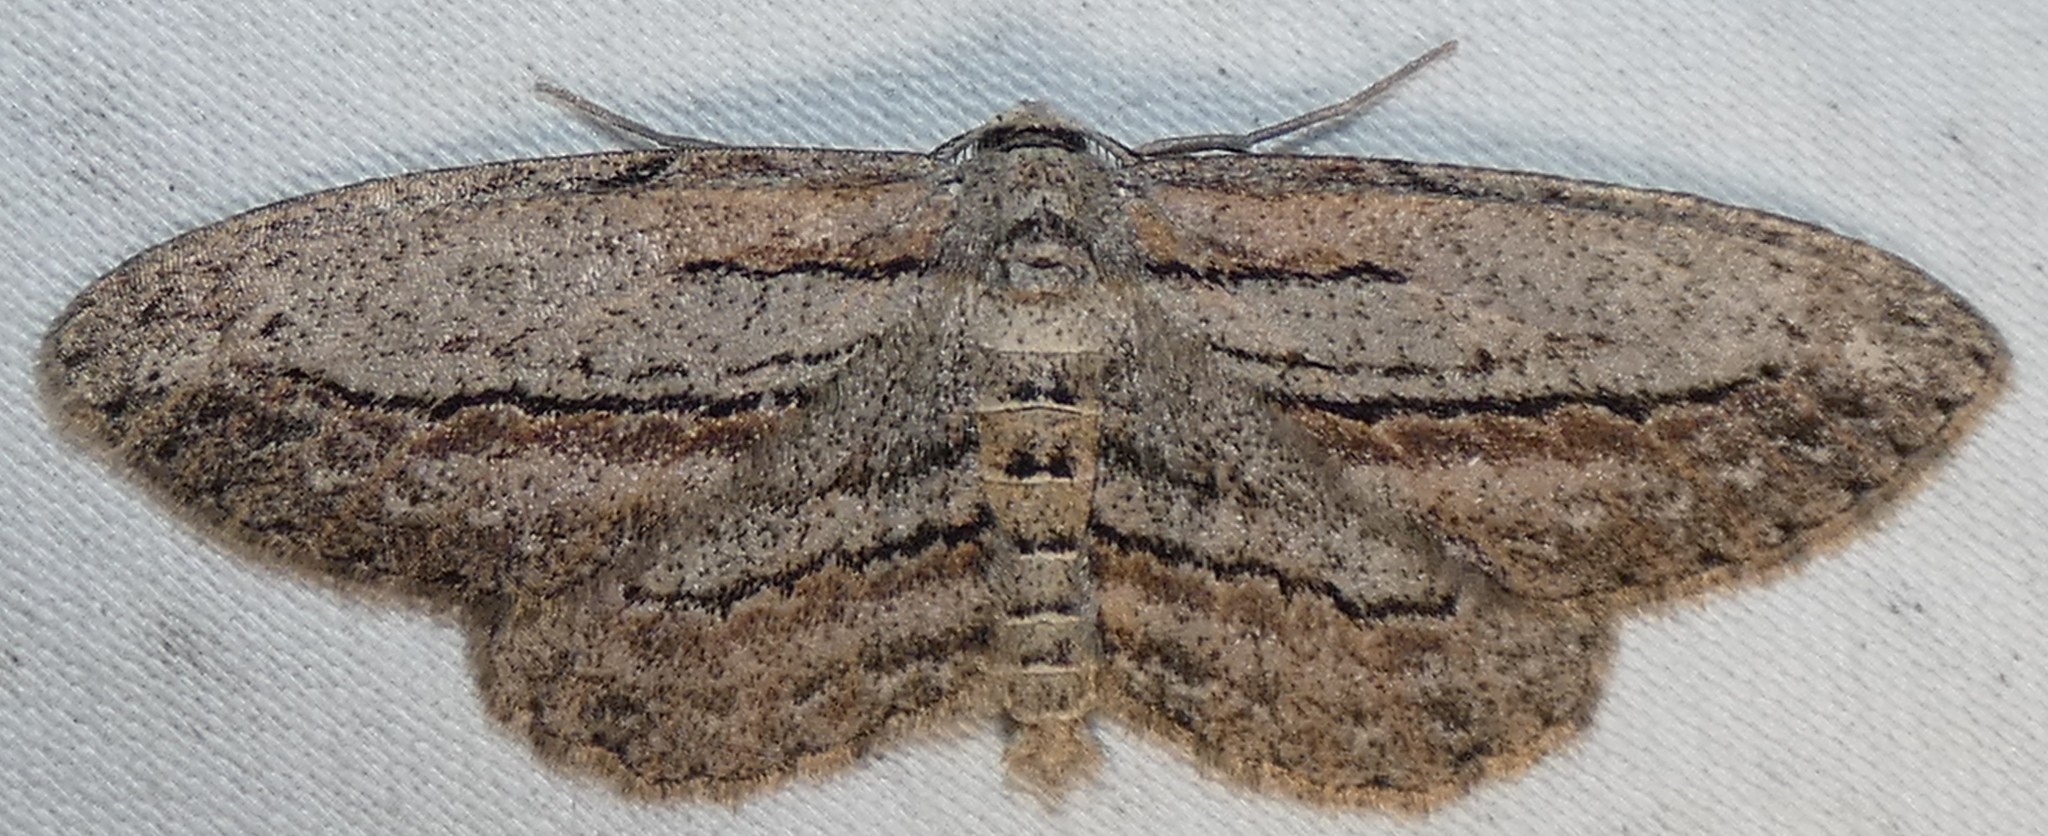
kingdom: Animalia
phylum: Arthropoda
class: Insecta
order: Lepidoptera
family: Geometridae
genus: Glena
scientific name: Glena plumosaria
